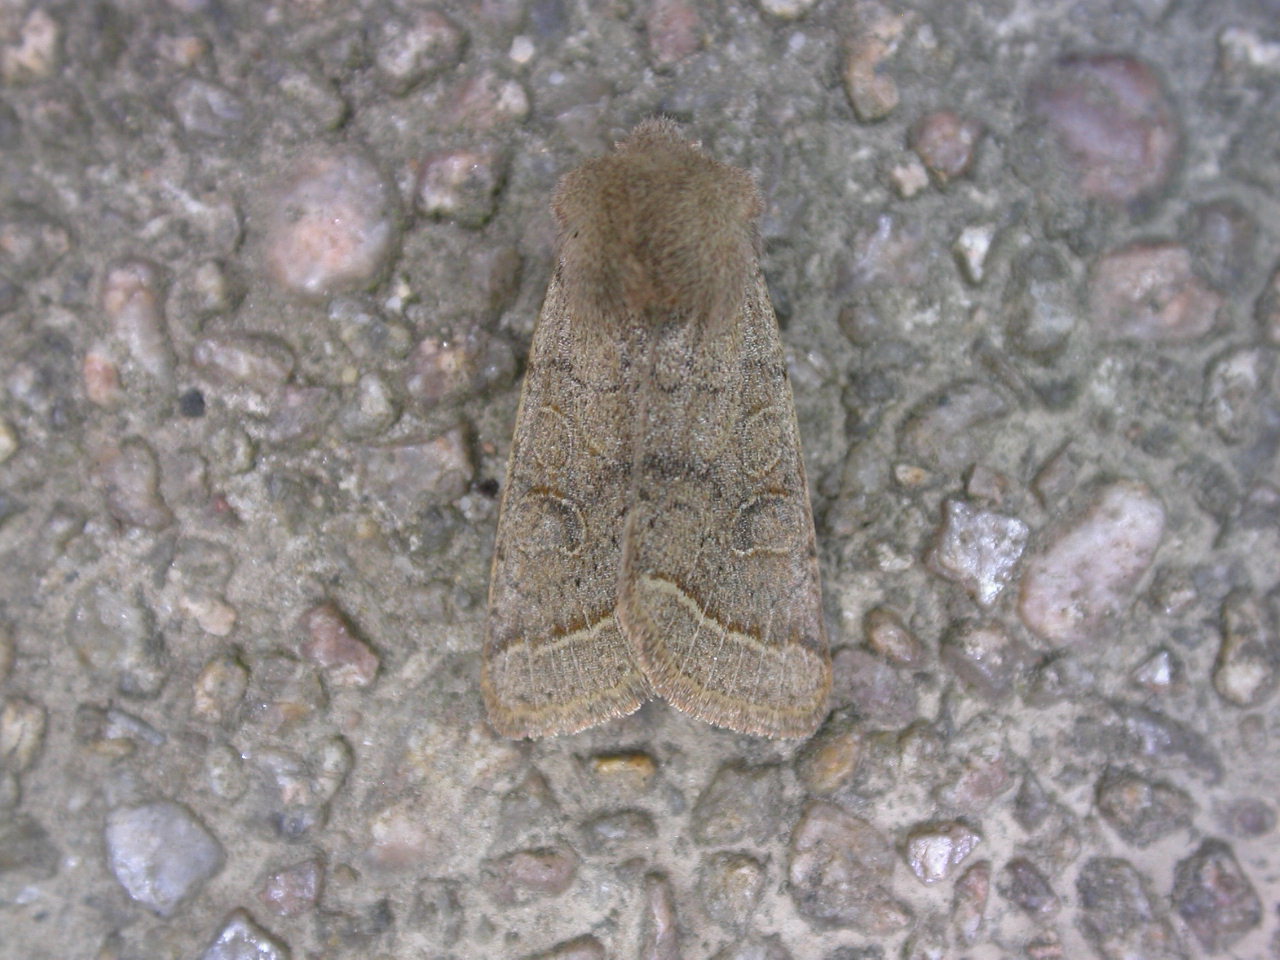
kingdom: Animalia
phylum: Arthropoda
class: Insecta
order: Lepidoptera
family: Noctuidae
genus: Orthosia
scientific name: Orthosia cerasi
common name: Common quaker
